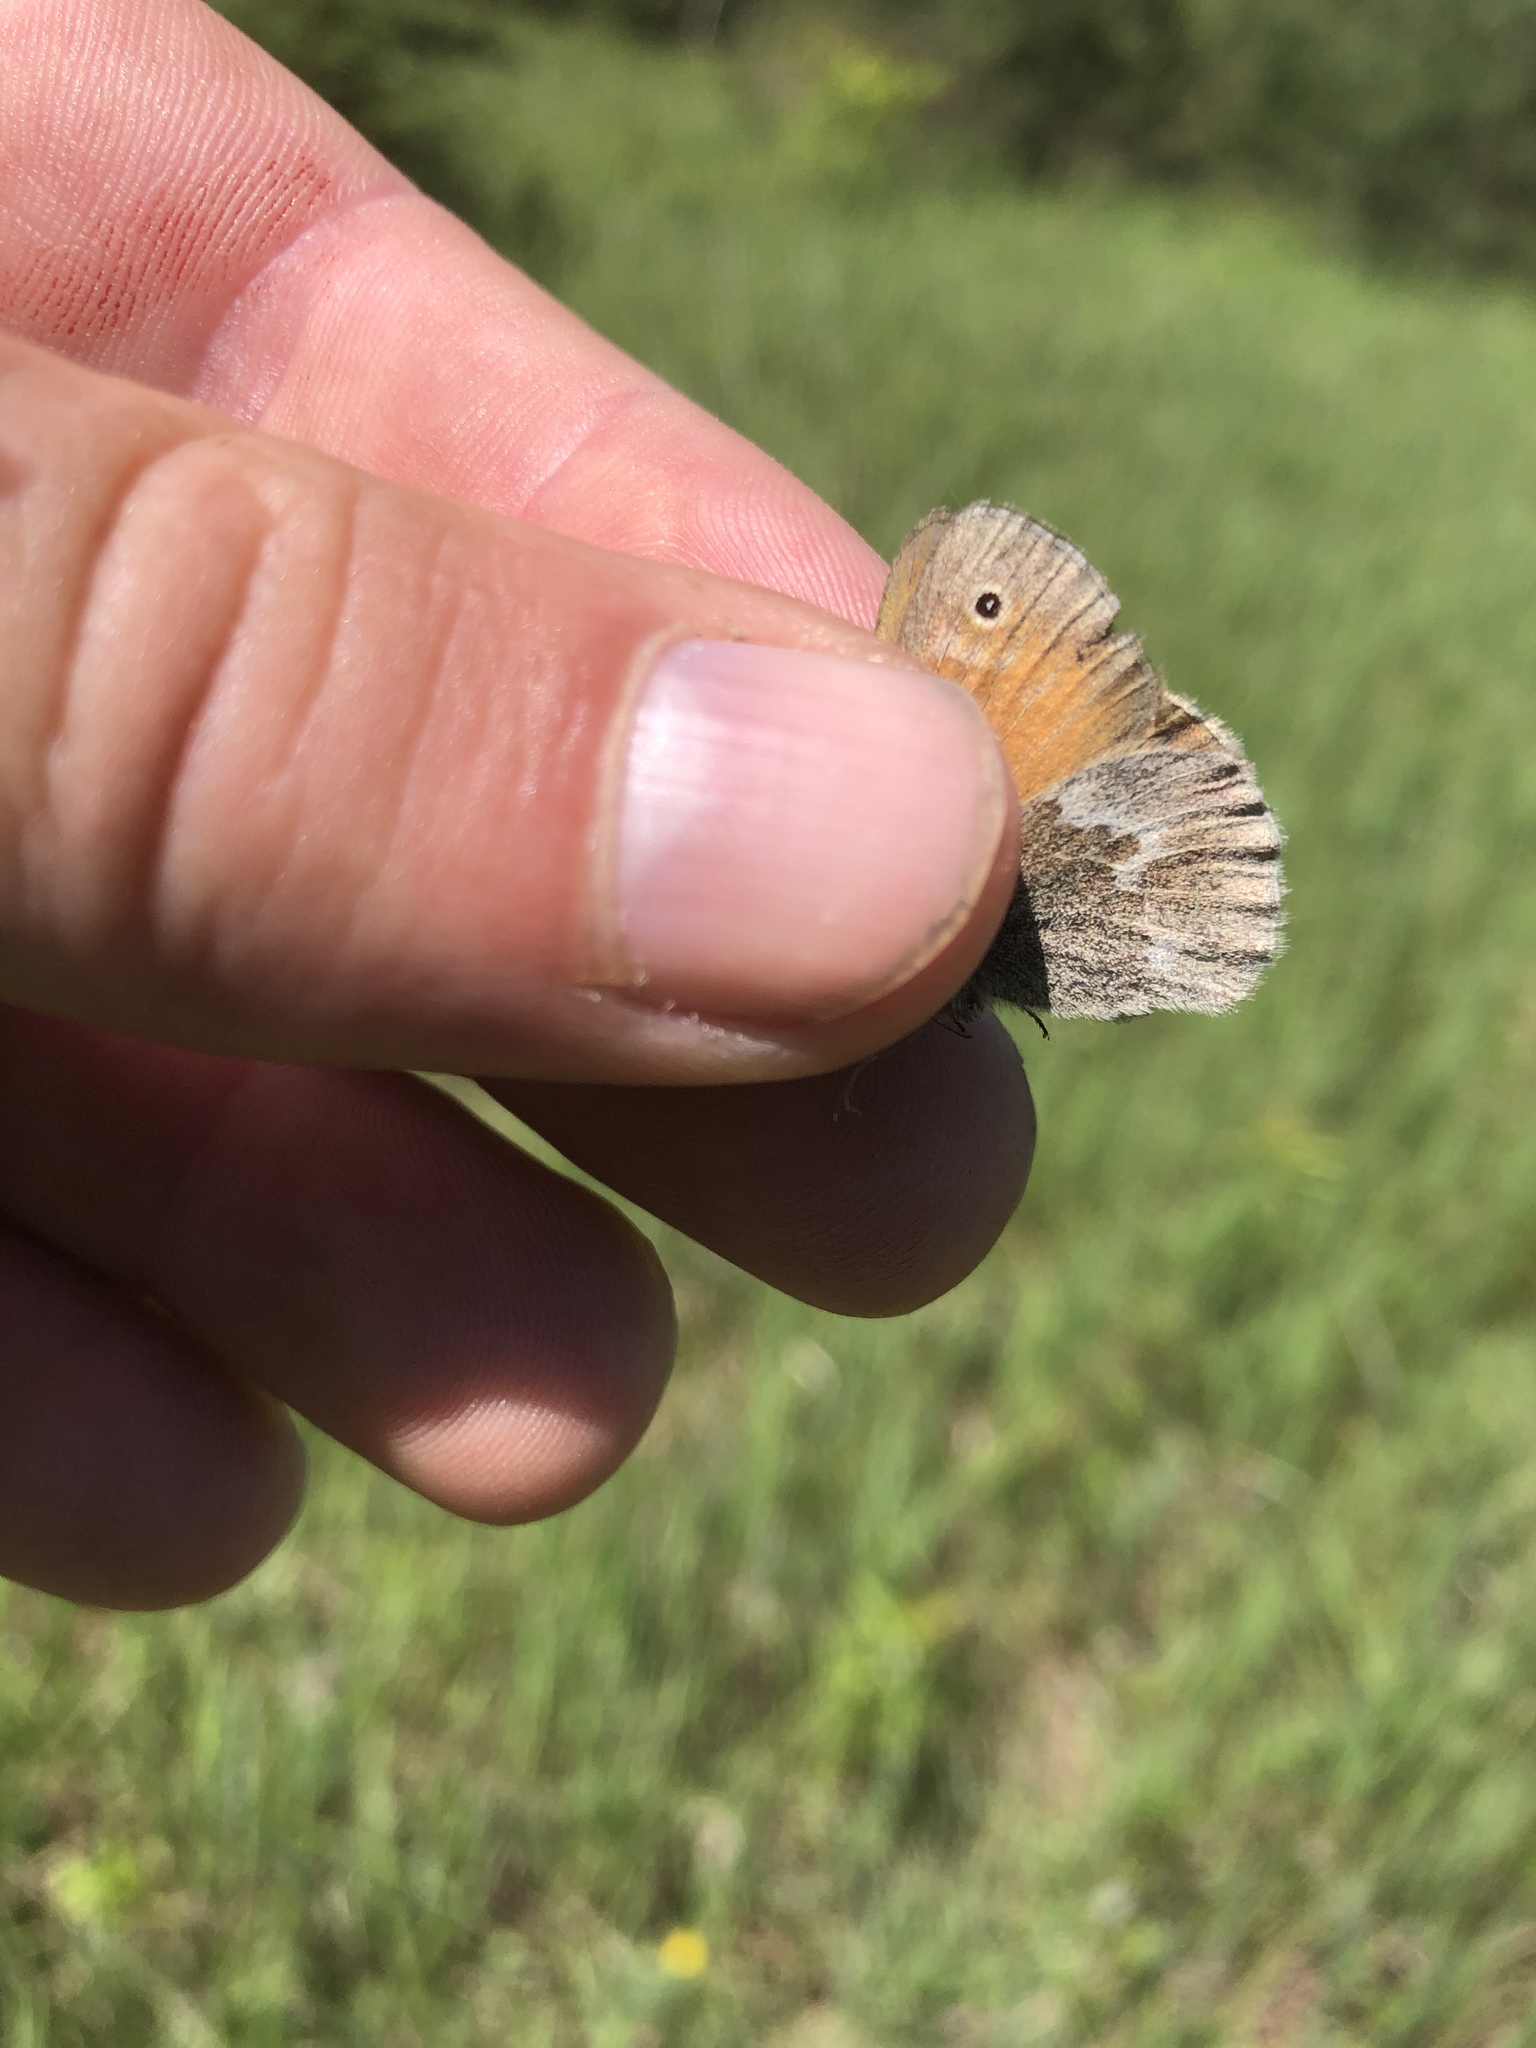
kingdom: Animalia
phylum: Arthropoda
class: Insecta
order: Lepidoptera
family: Nymphalidae
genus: Coenonympha
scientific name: Coenonympha california
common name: Common ringlet
